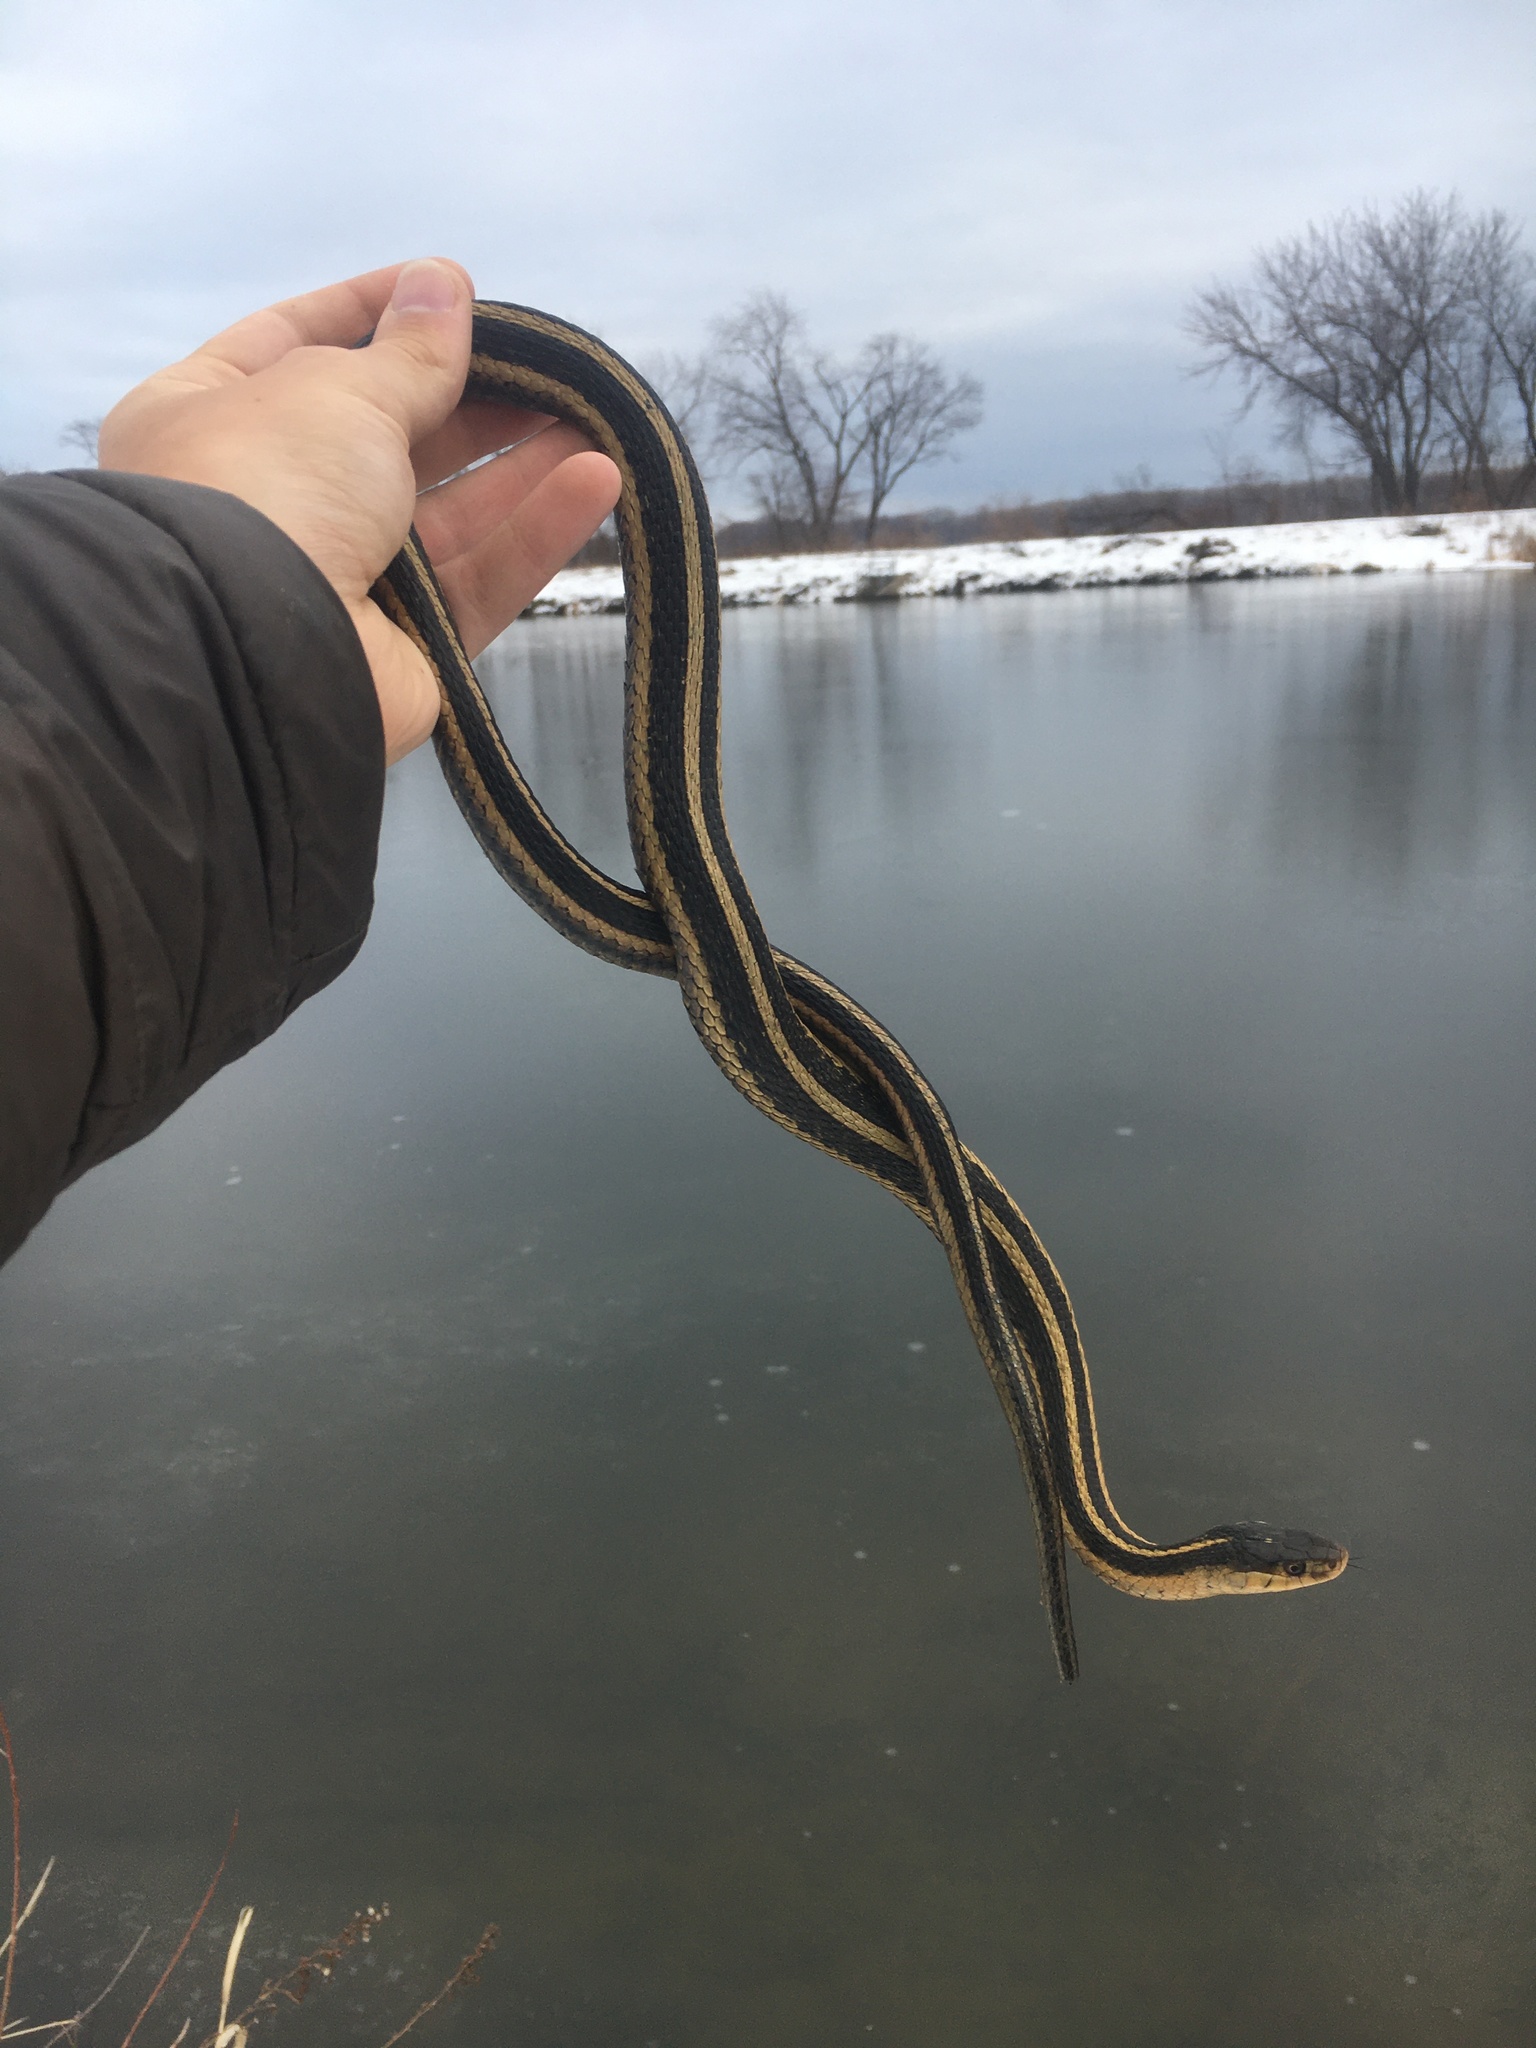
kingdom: Animalia
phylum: Chordata
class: Squamata
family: Colubridae
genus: Thamnophis
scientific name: Thamnophis sirtalis
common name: Common garter snake
